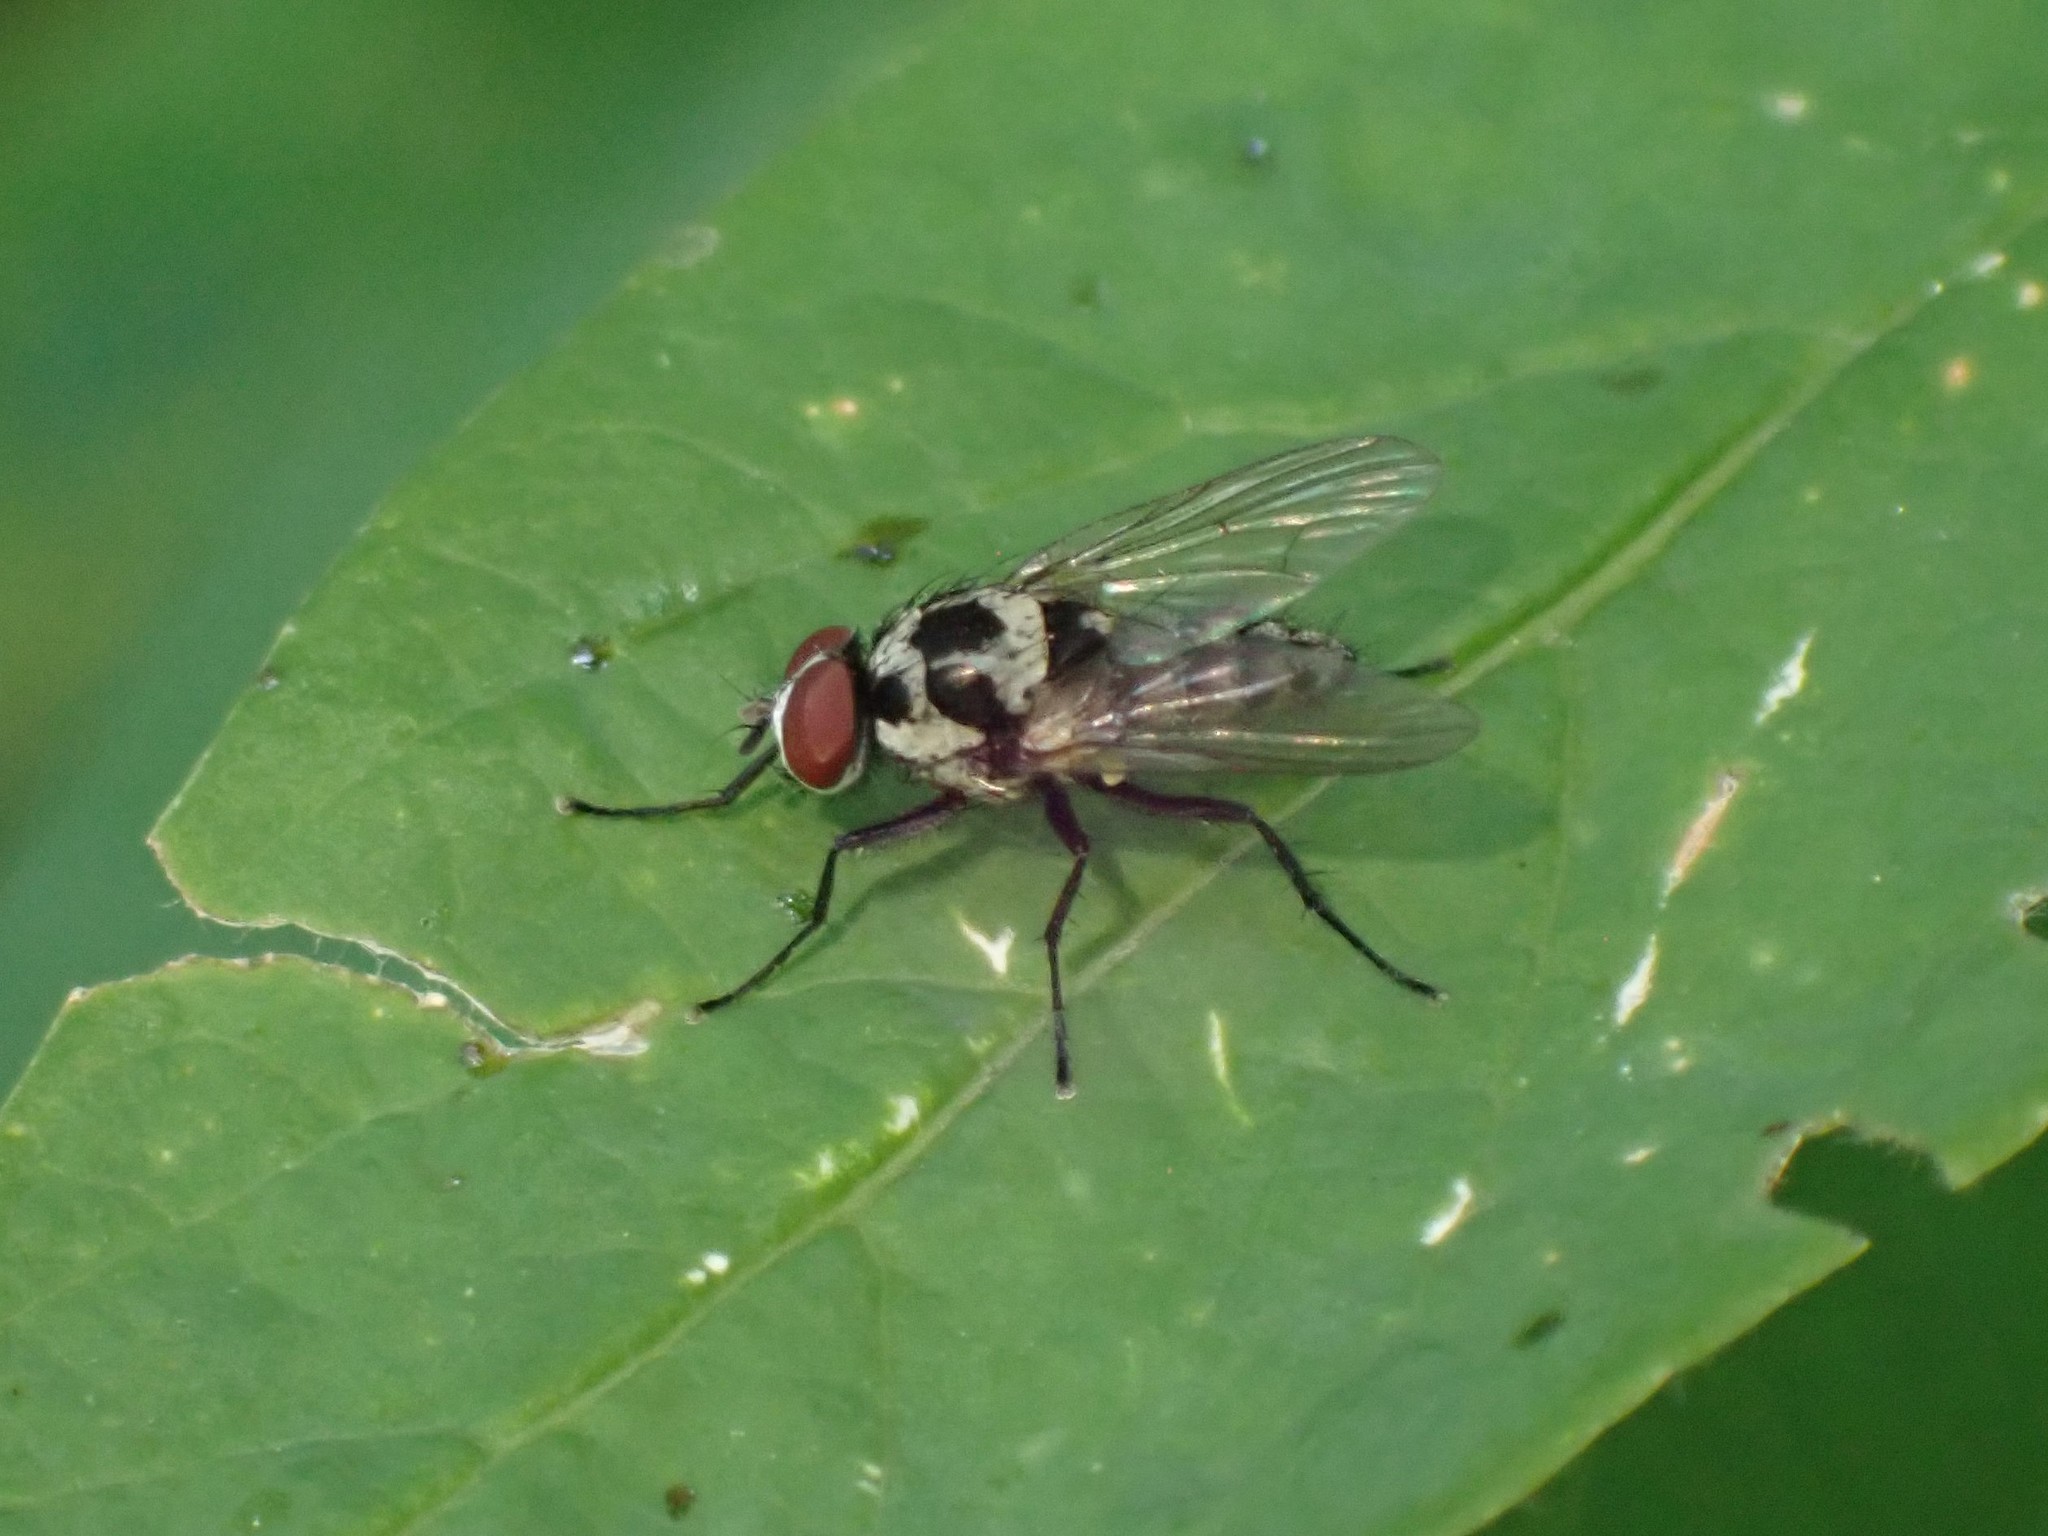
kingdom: Animalia
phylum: Arthropoda
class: Insecta
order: Diptera
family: Anthomyiidae
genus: Anthomyia
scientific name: Anthomyia procellaris
